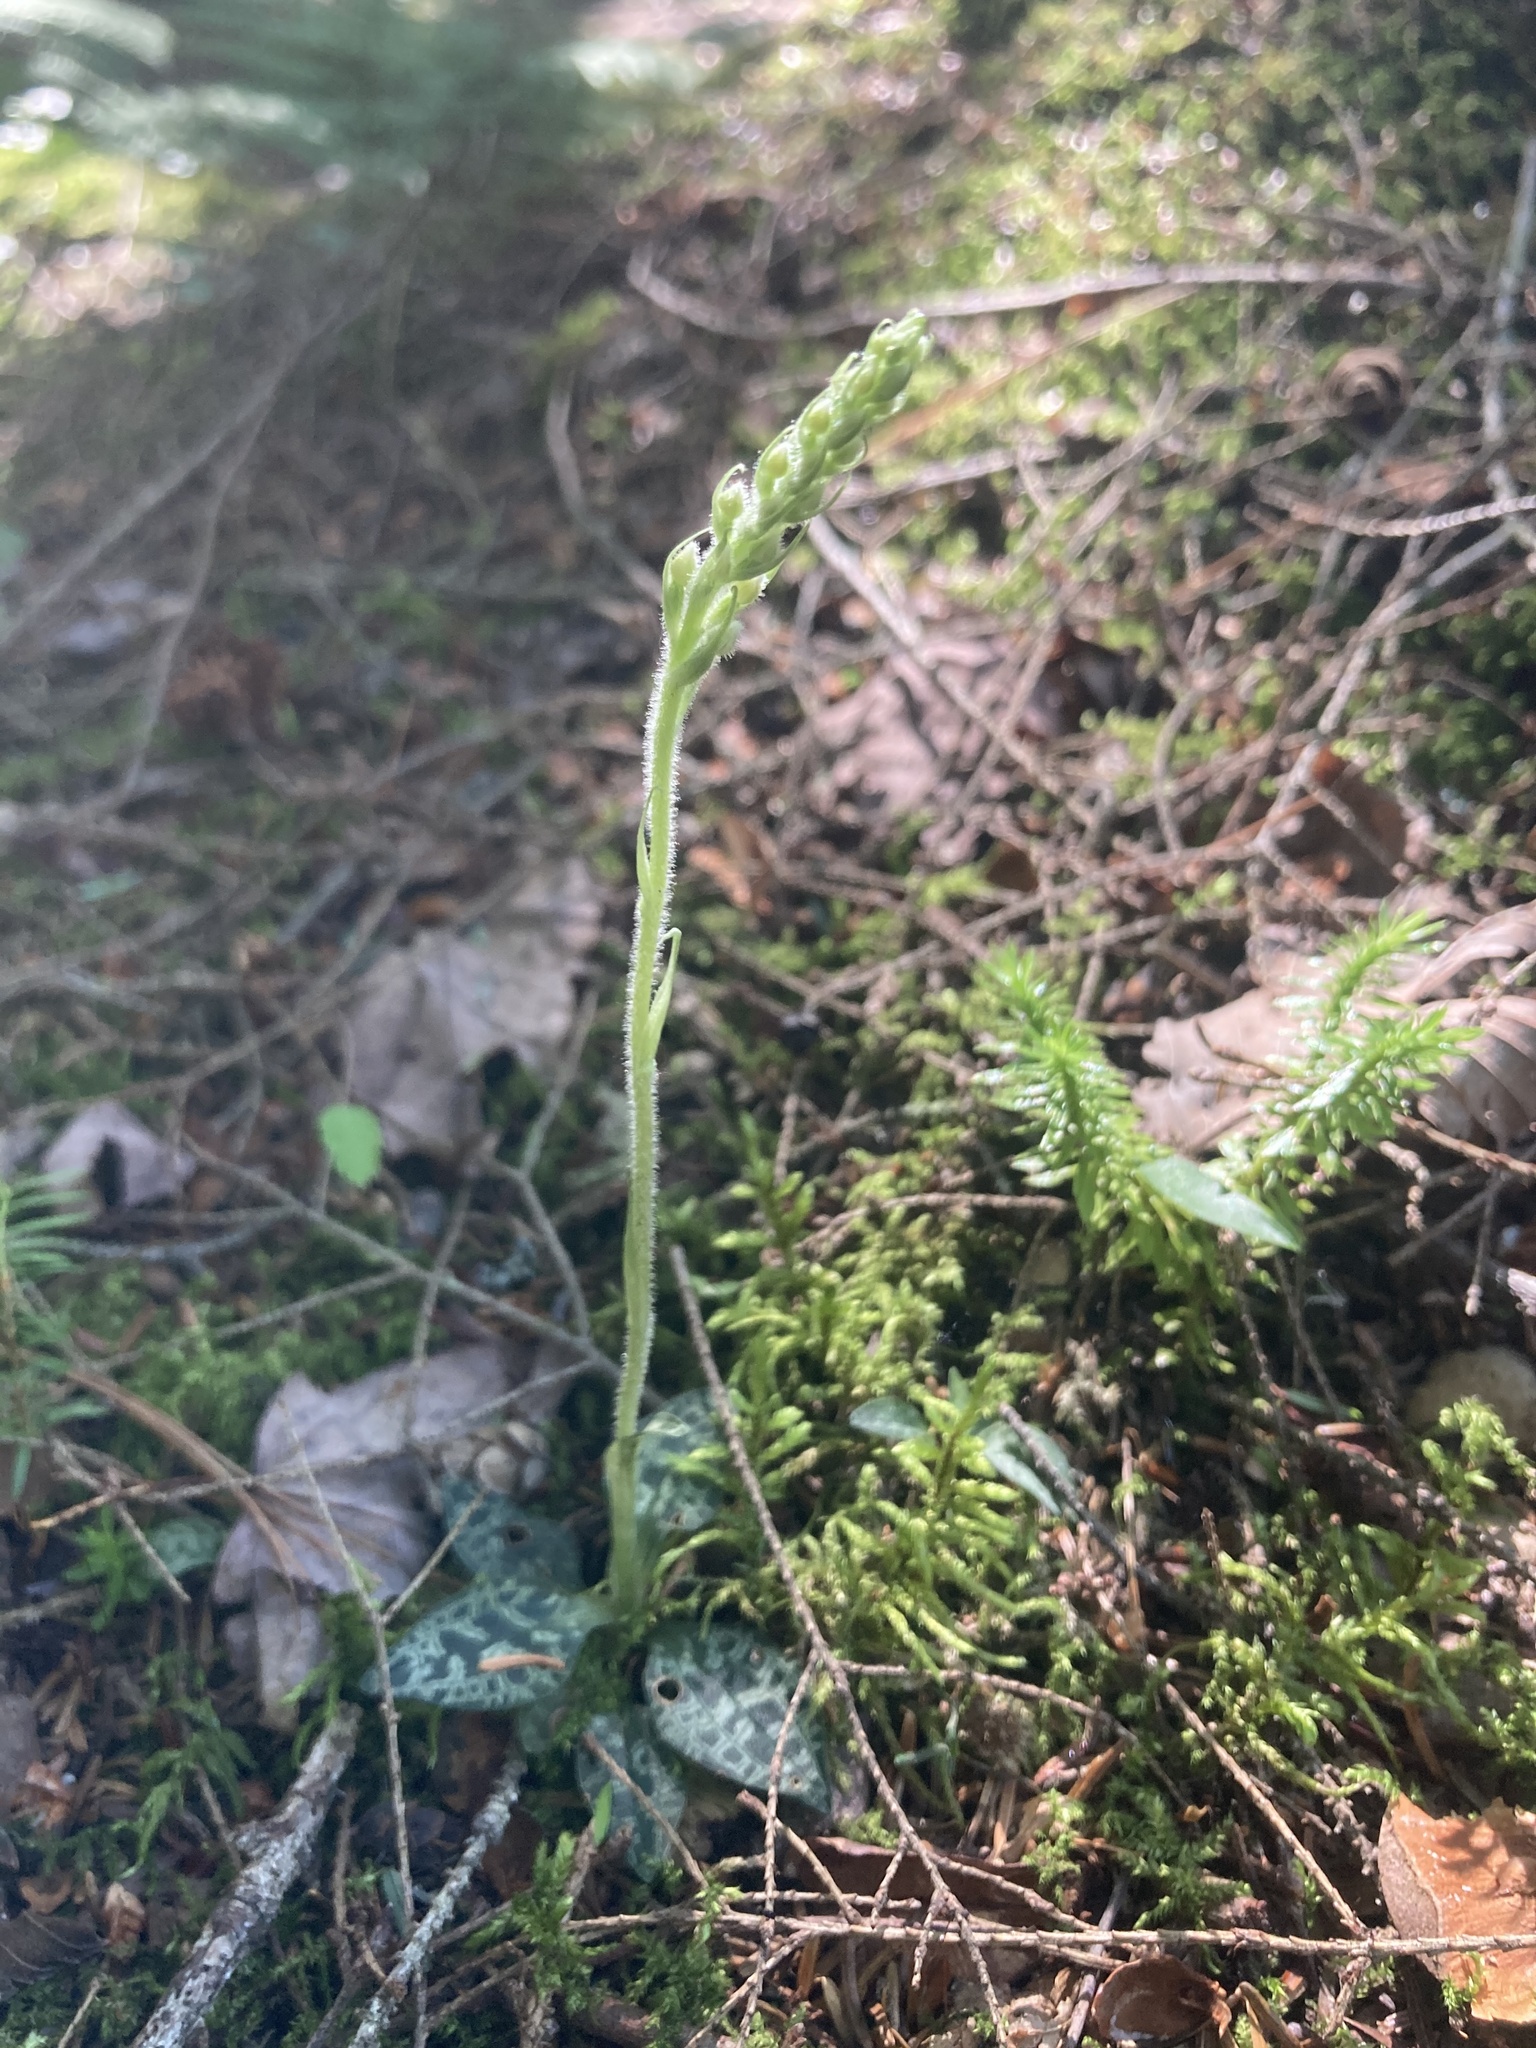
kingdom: Plantae
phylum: Tracheophyta
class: Liliopsida
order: Asparagales
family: Orchidaceae
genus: Goodyera
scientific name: Goodyera repens
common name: Creeping lady's-tresses
